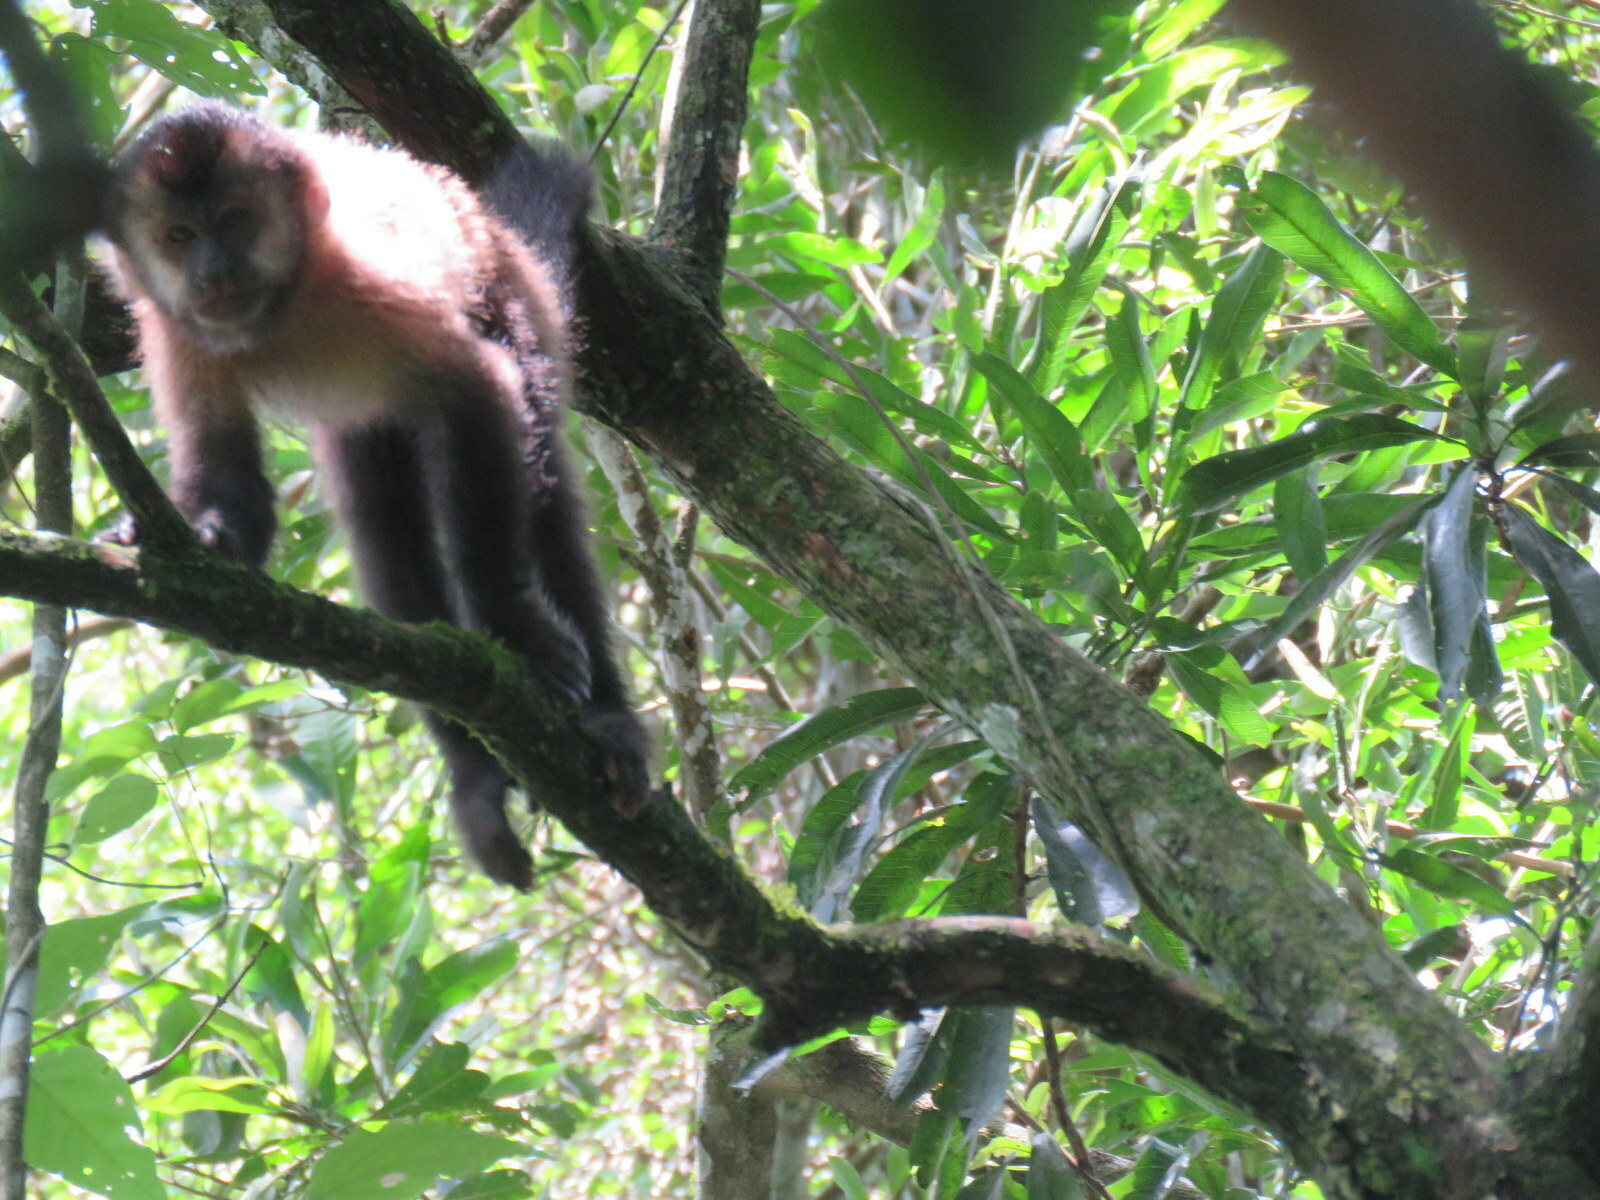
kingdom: Animalia
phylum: Chordata
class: Mammalia
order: Primates
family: Cebidae
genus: Sapajus
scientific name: Sapajus nigritus
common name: Black capuchin
